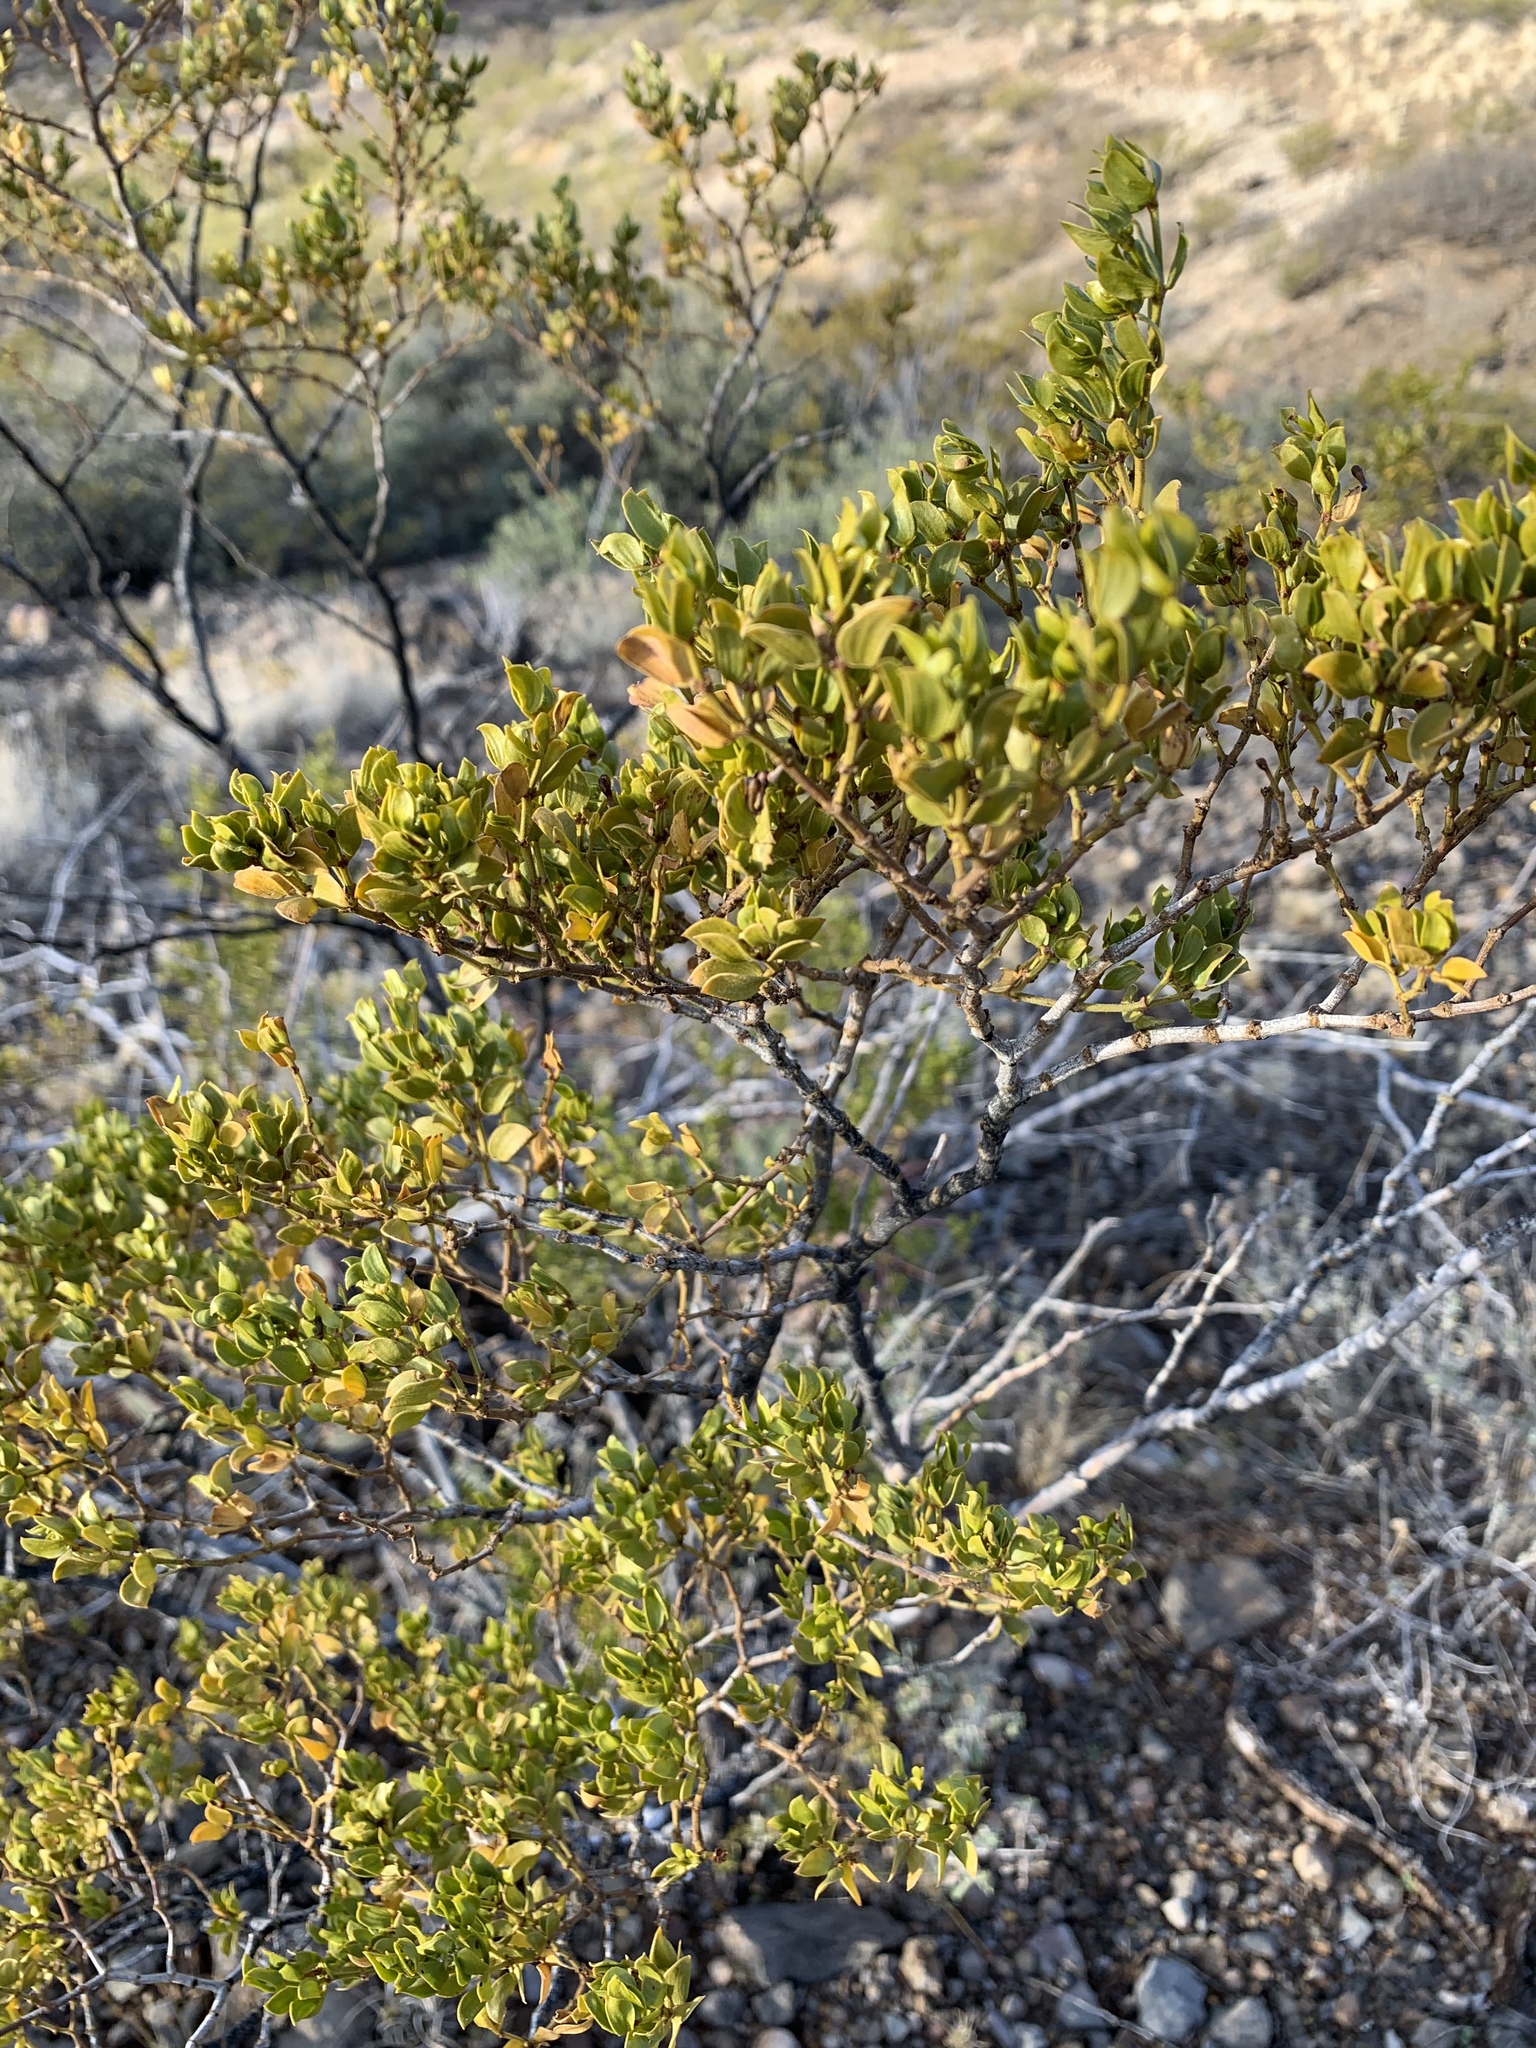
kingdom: Plantae
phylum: Tracheophyta
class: Magnoliopsida
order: Zygophyllales
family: Zygophyllaceae
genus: Larrea
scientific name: Larrea tridentata
